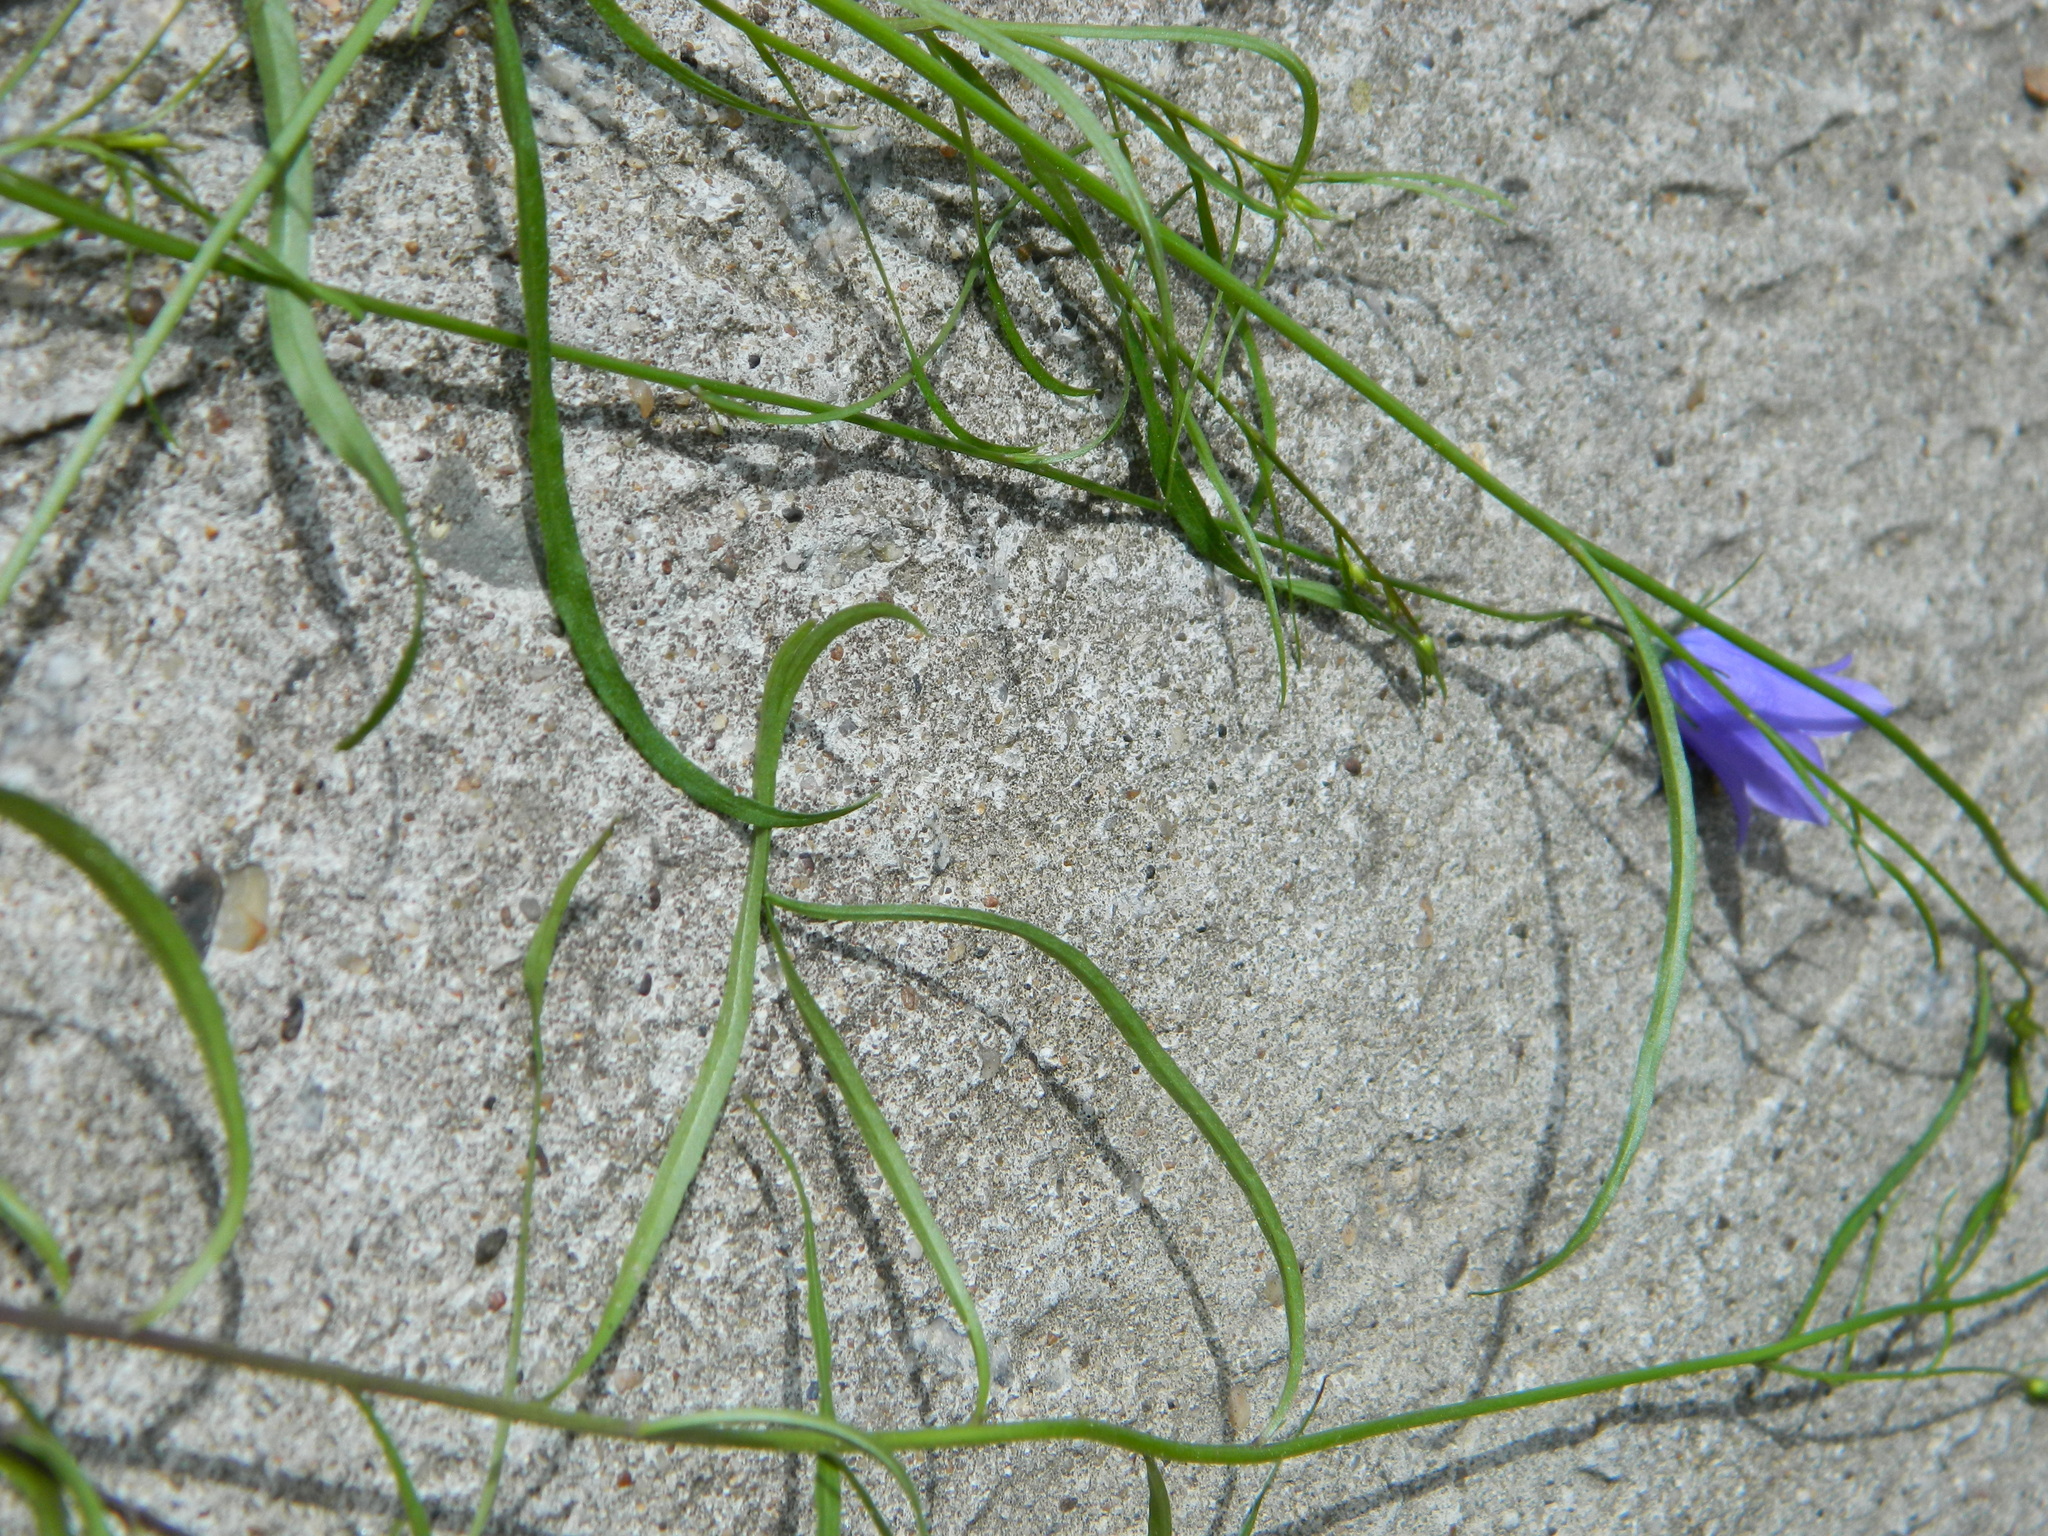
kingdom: Plantae
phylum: Tracheophyta
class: Magnoliopsida
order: Asterales
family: Campanulaceae
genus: Campanula
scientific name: Campanula rotundifolia
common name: Harebell
